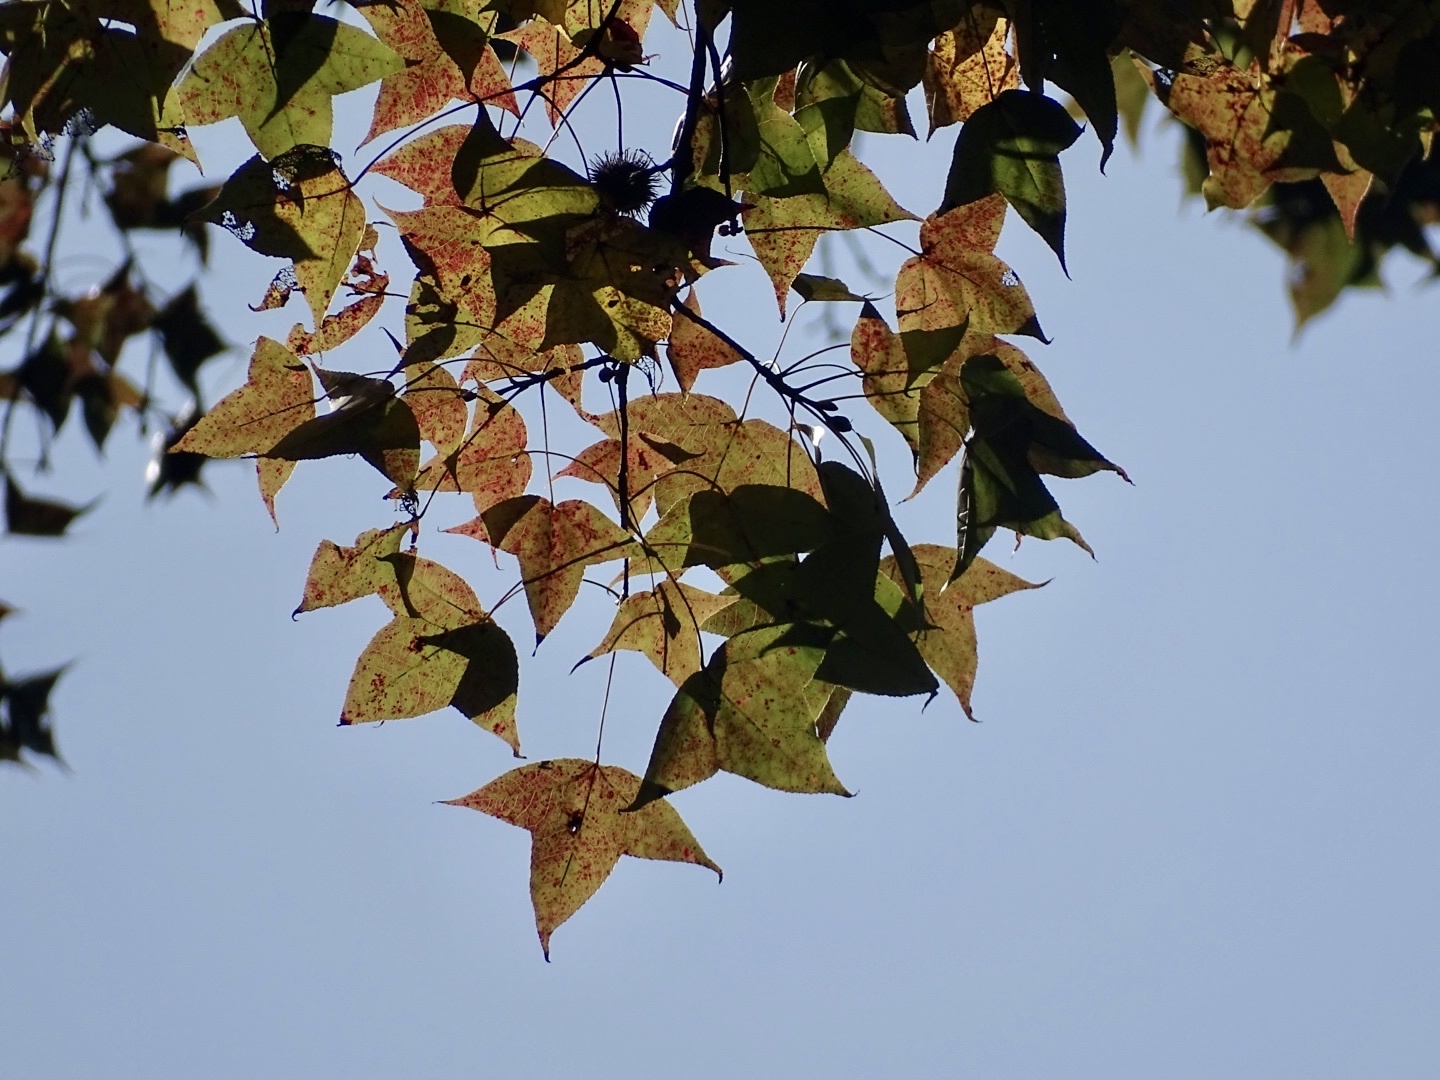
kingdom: Plantae
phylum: Tracheophyta
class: Magnoliopsida
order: Saxifragales
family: Altingiaceae
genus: Liquidambar
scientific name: Liquidambar formosana
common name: Chinese sweet gum
